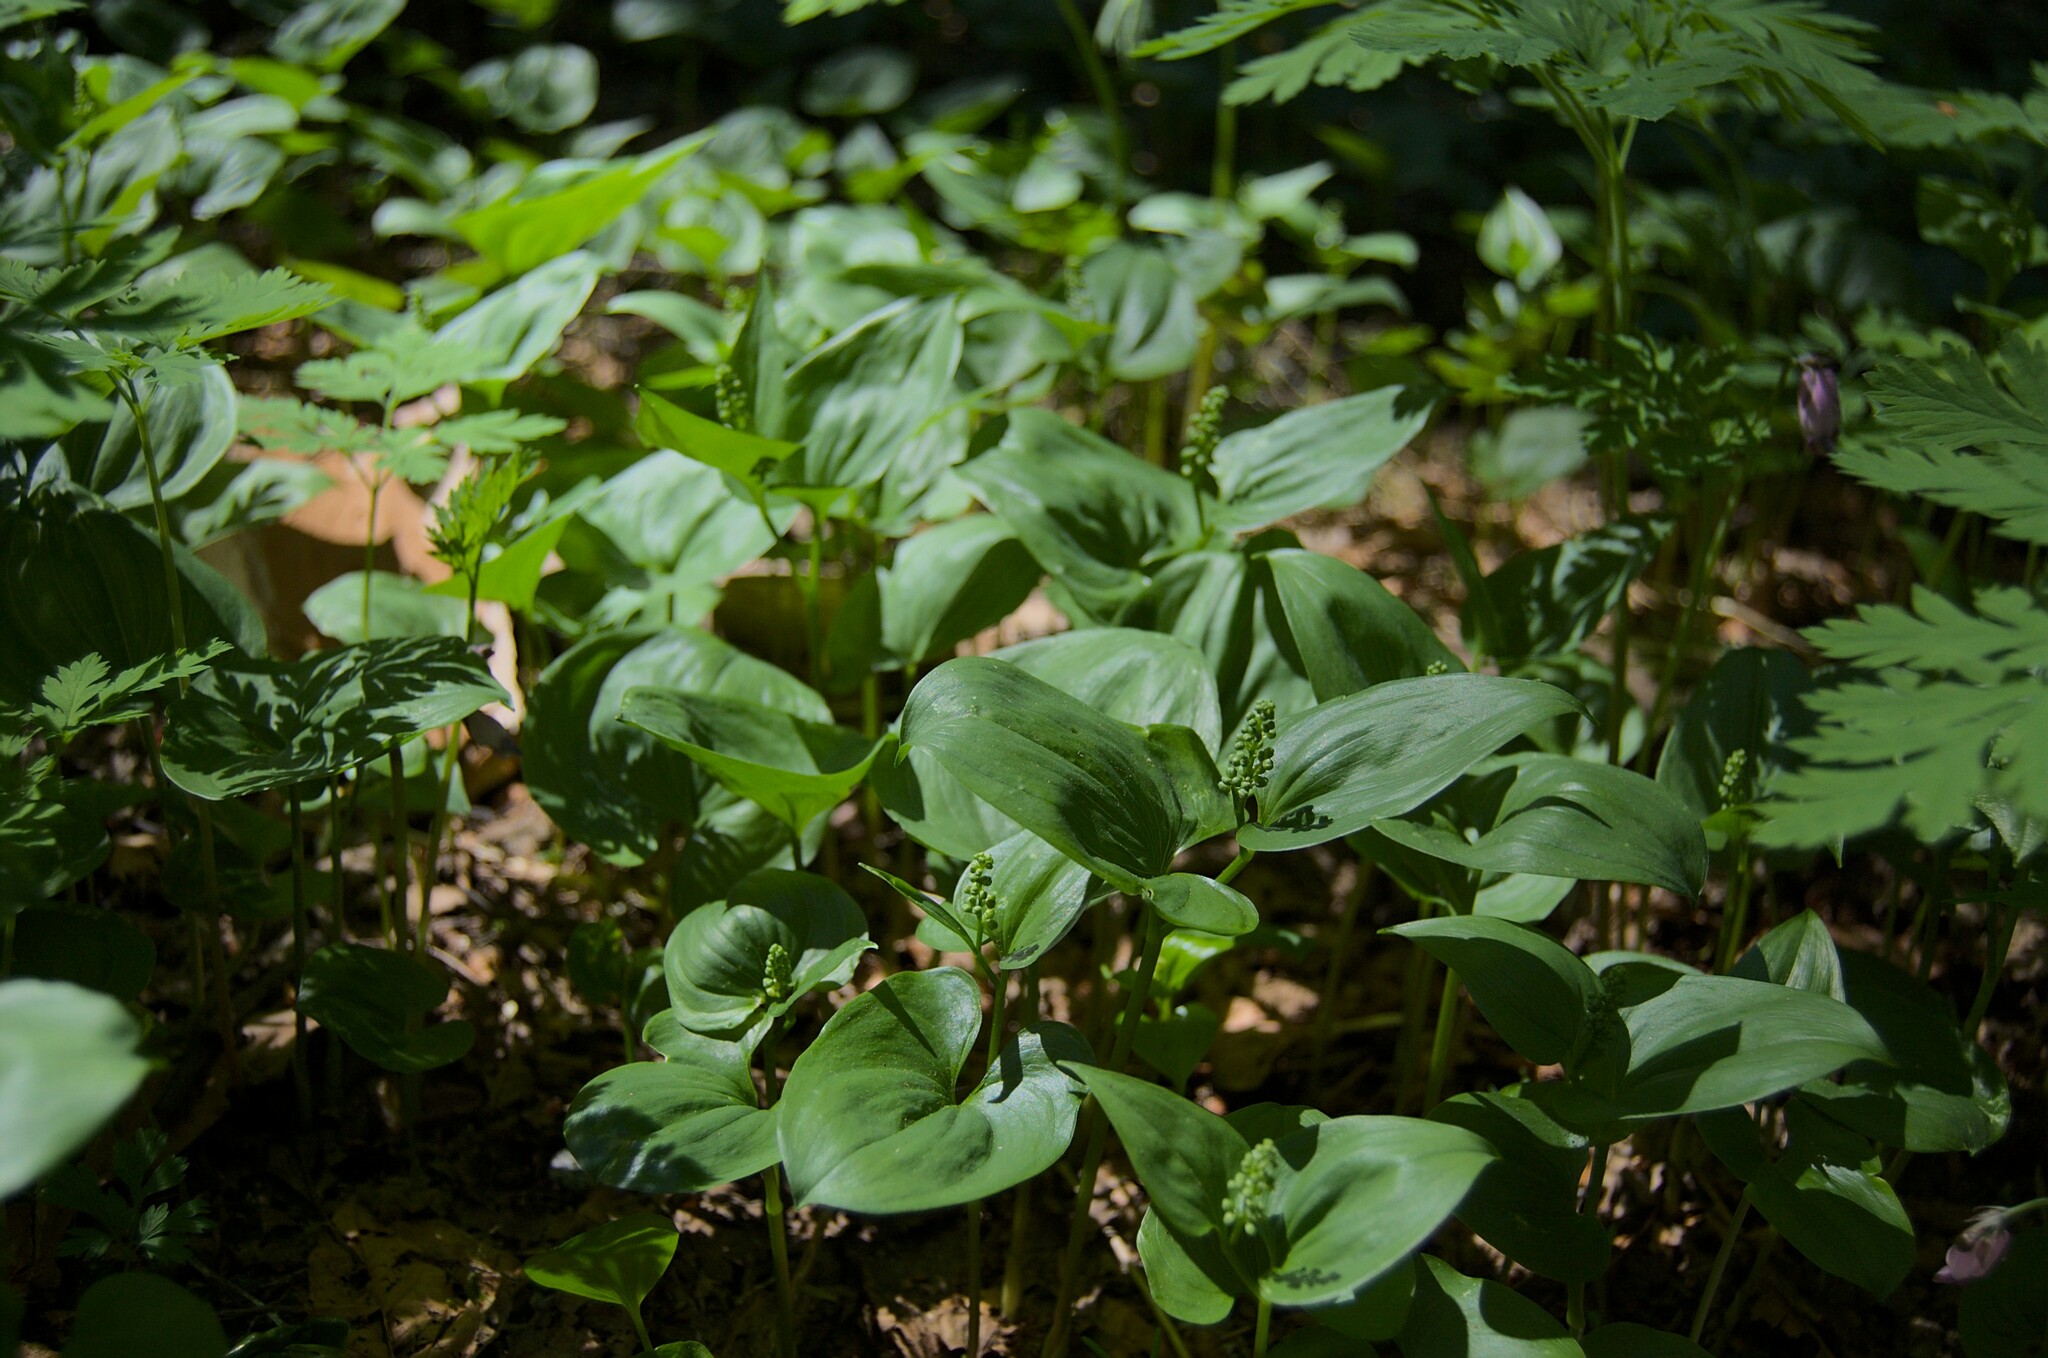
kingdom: Plantae
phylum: Tracheophyta
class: Liliopsida
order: Asparagales
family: Asparagaceae
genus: Maianthemum
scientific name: Maianthemum dilatatum
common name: False lily-of-the-valley
